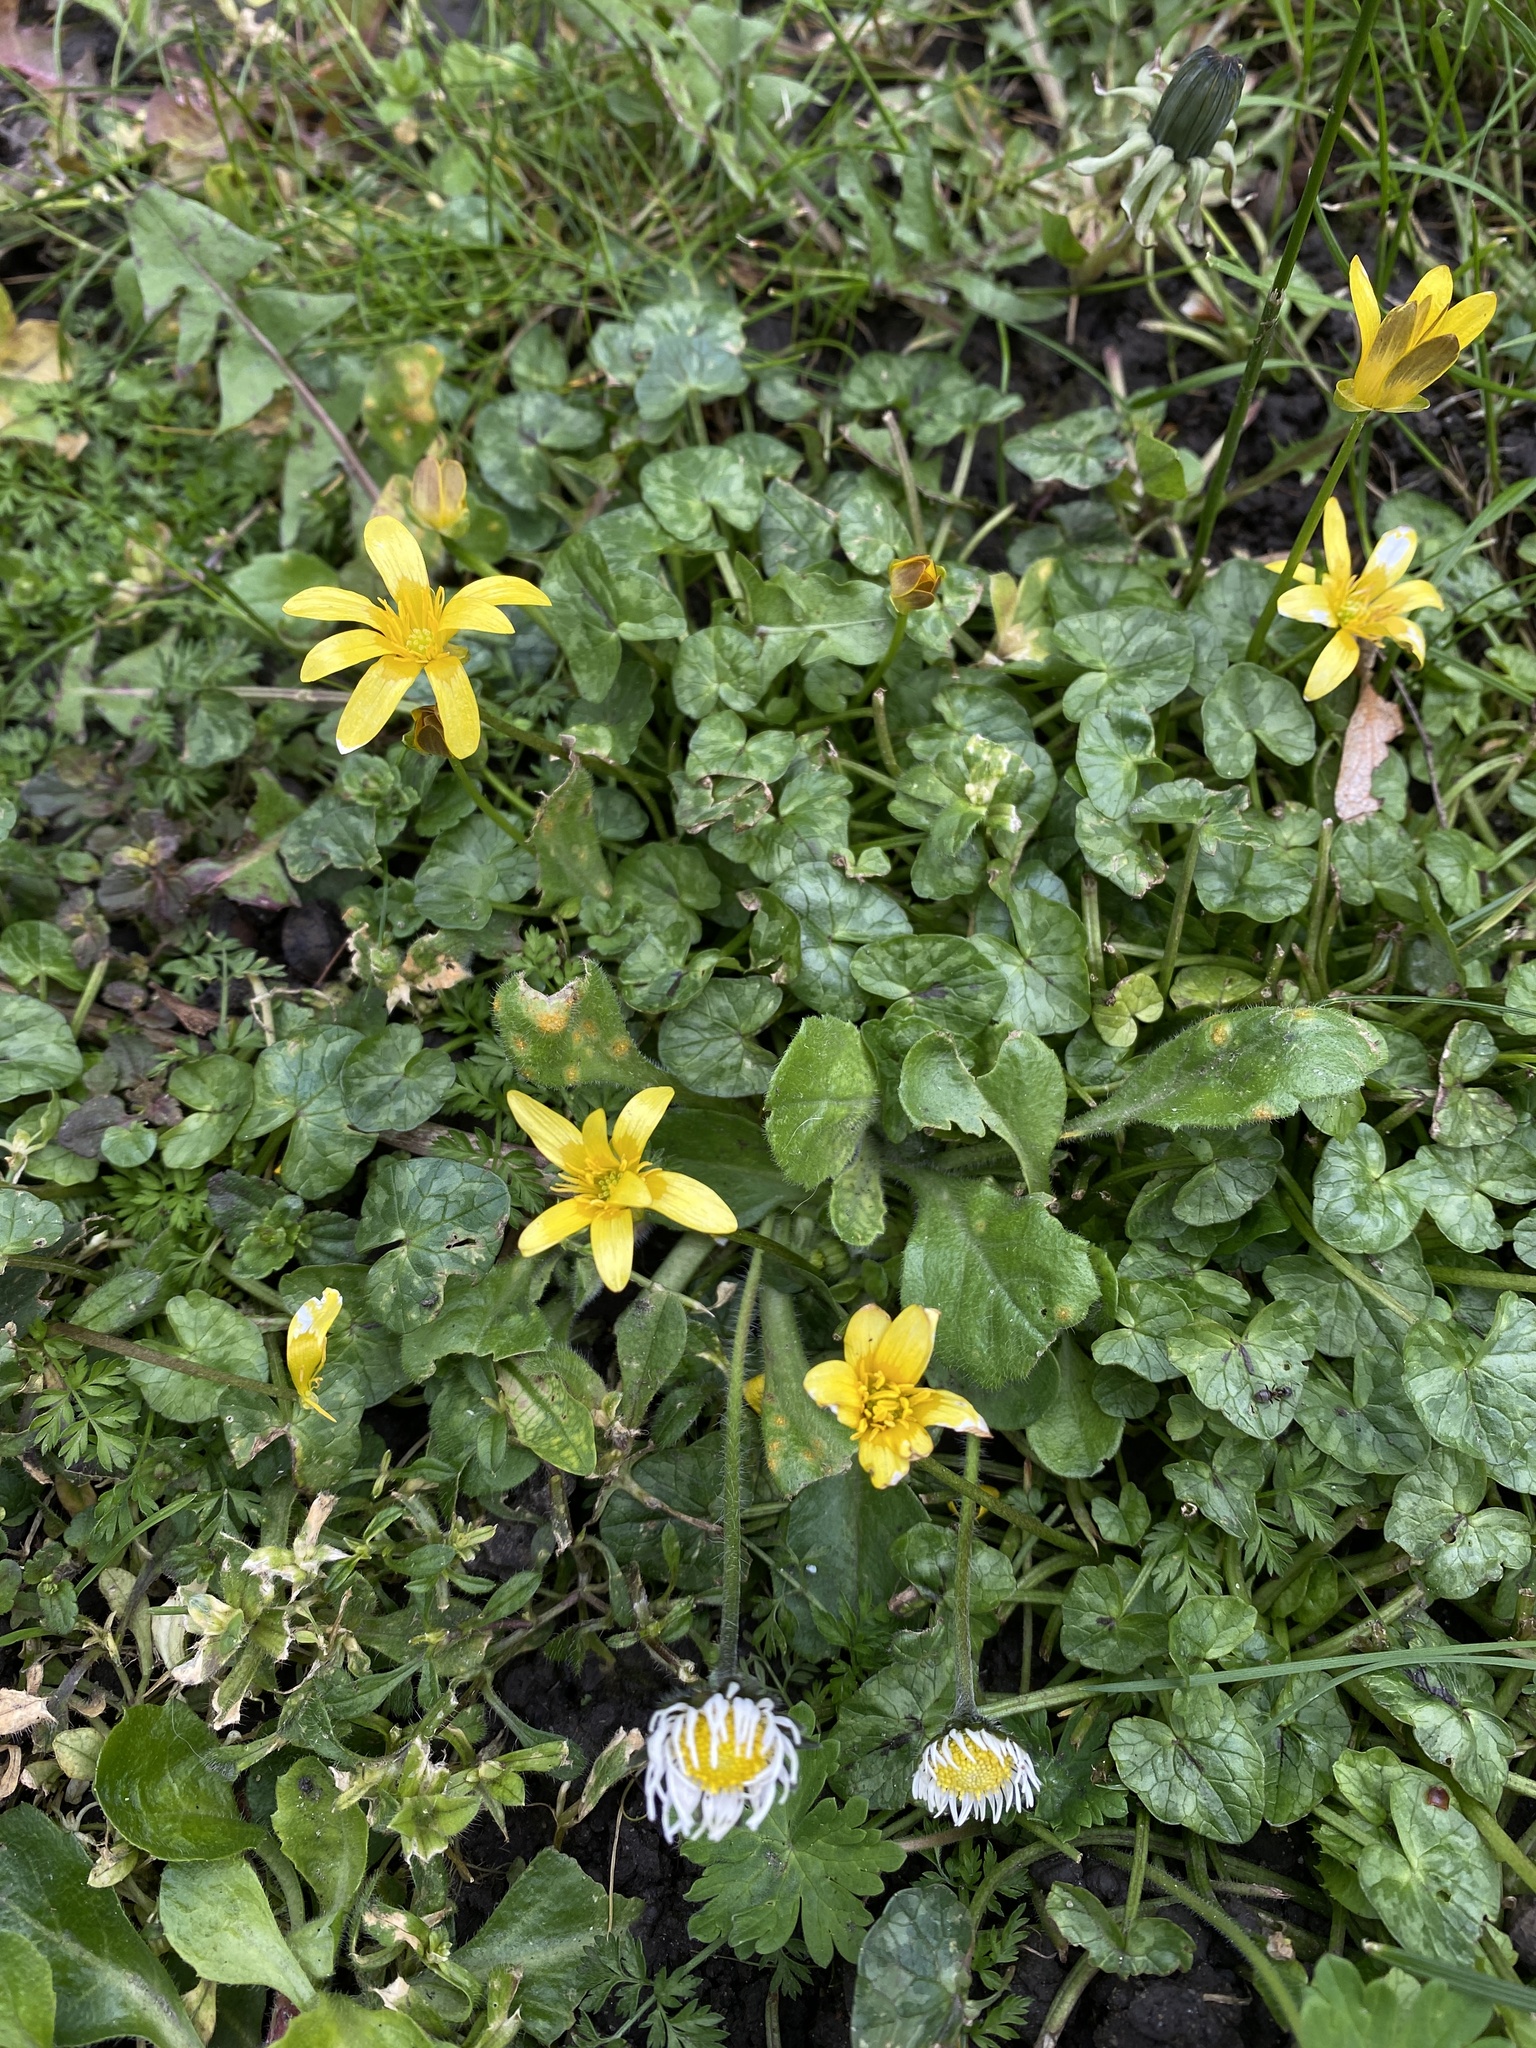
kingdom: Plantae
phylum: Tracheophyta
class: Magnoliopsida
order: Ranunculales
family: Ranunculaceae
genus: Ficaria
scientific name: Ficaria verna
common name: Lesser celandine
